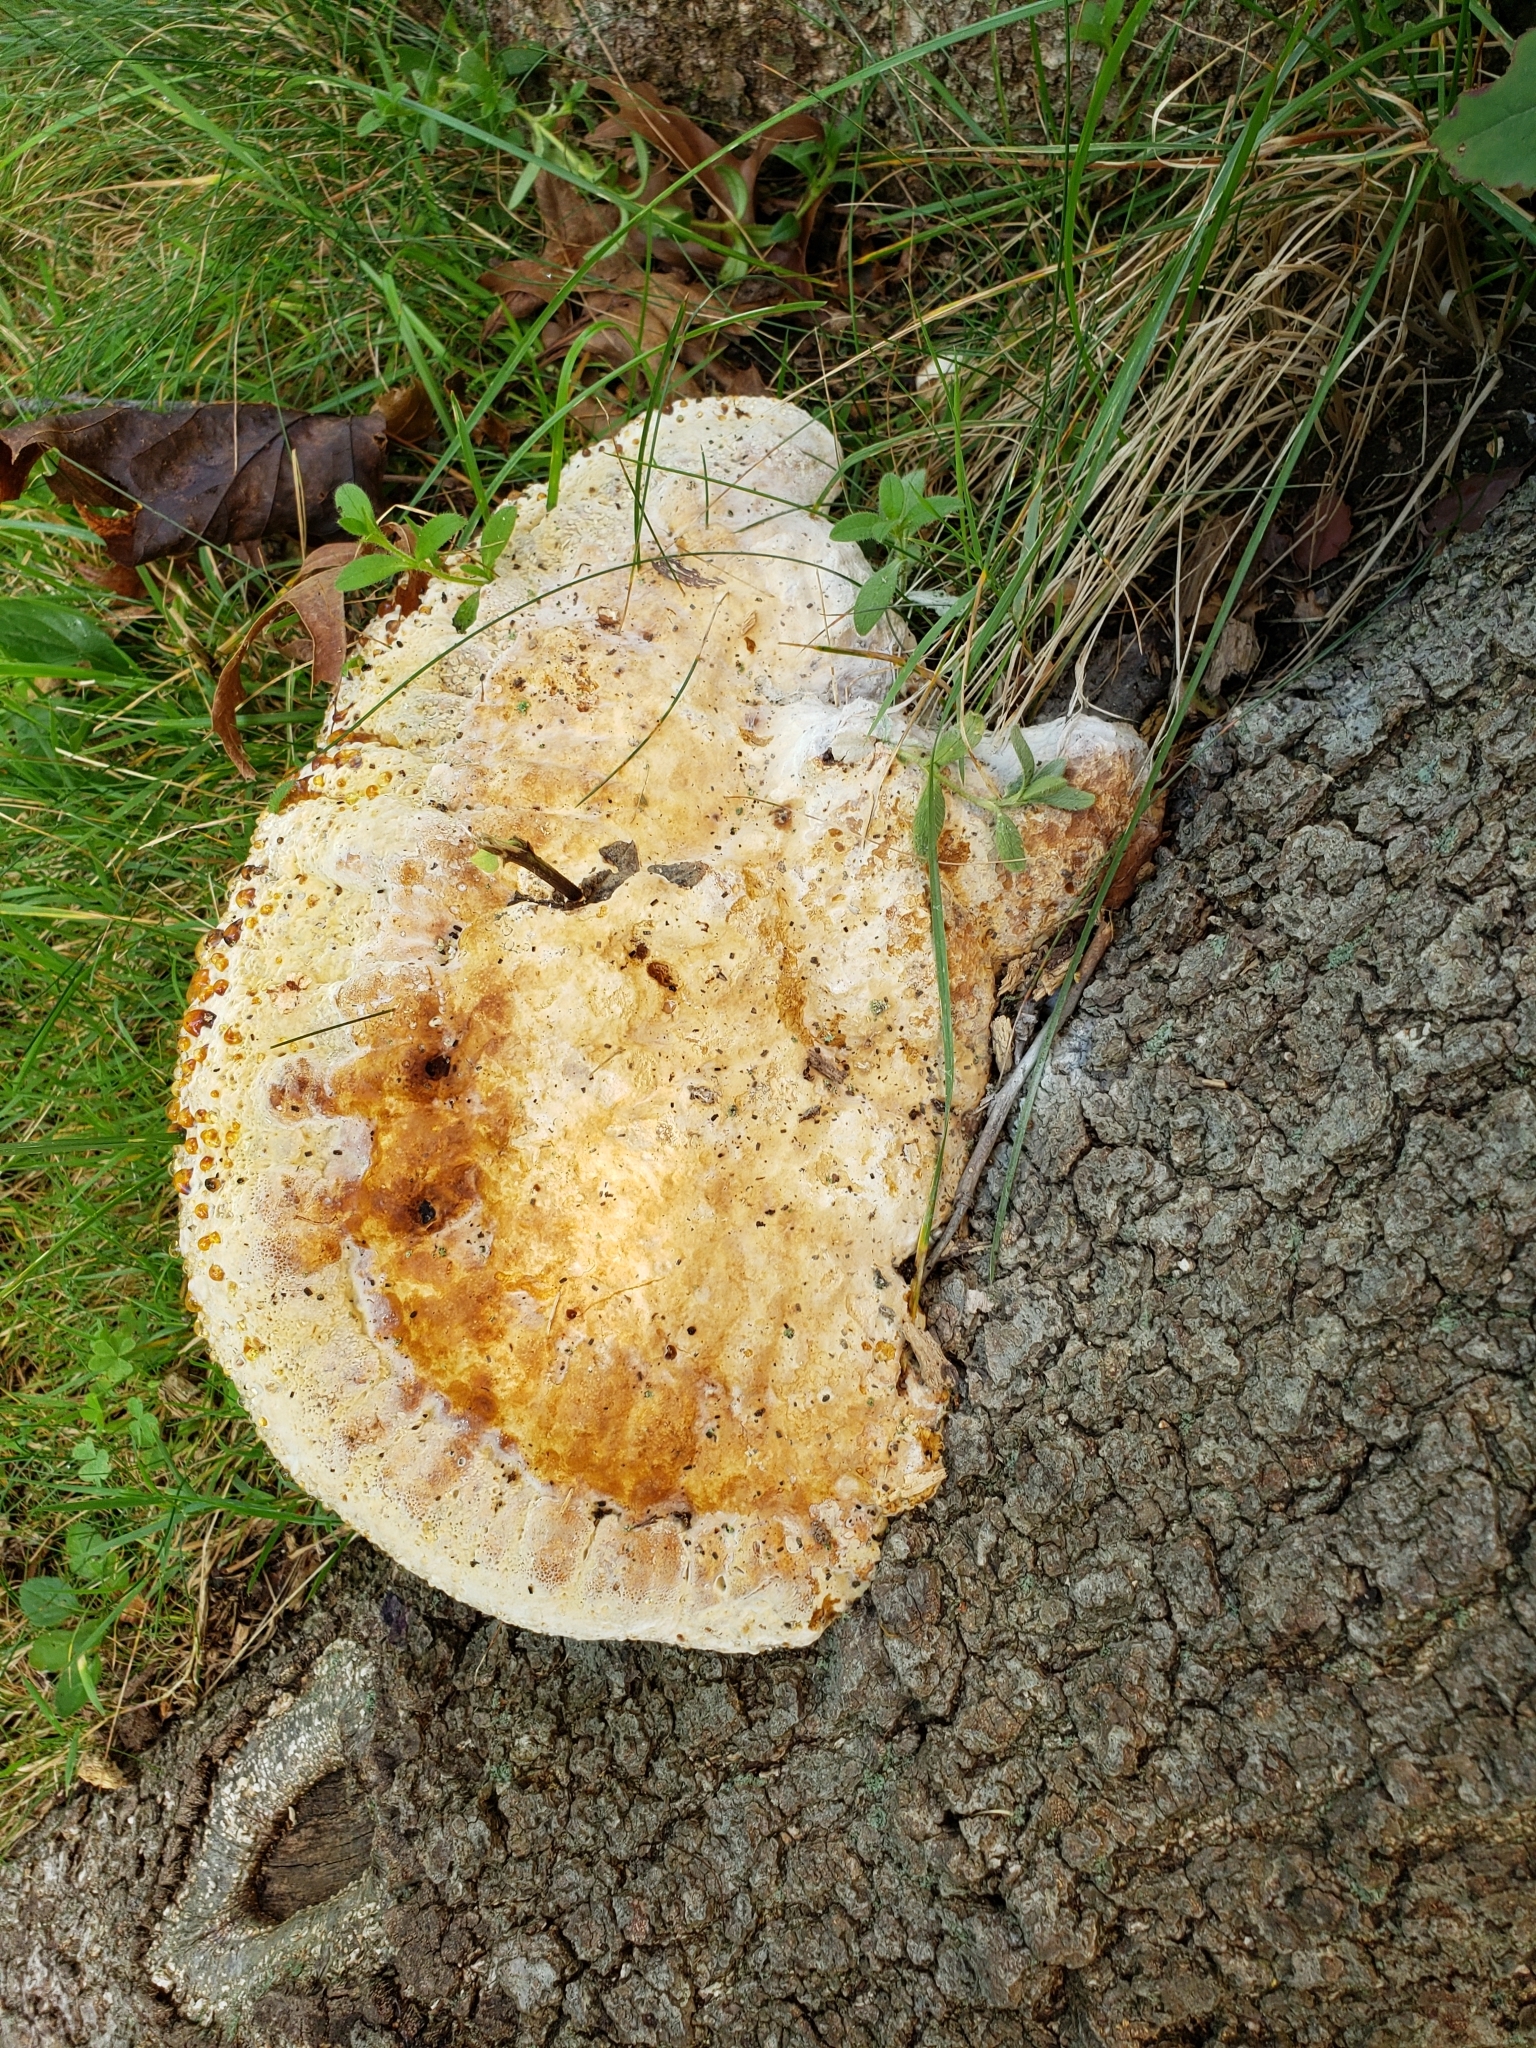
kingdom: Fungi
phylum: Basidiomycota
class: Agaricomycetes
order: Hymenochaetales
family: Hymenochaetaceae
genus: Pseudoinonotus
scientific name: Pseudoinonotus dryadeus
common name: Oak bracket
